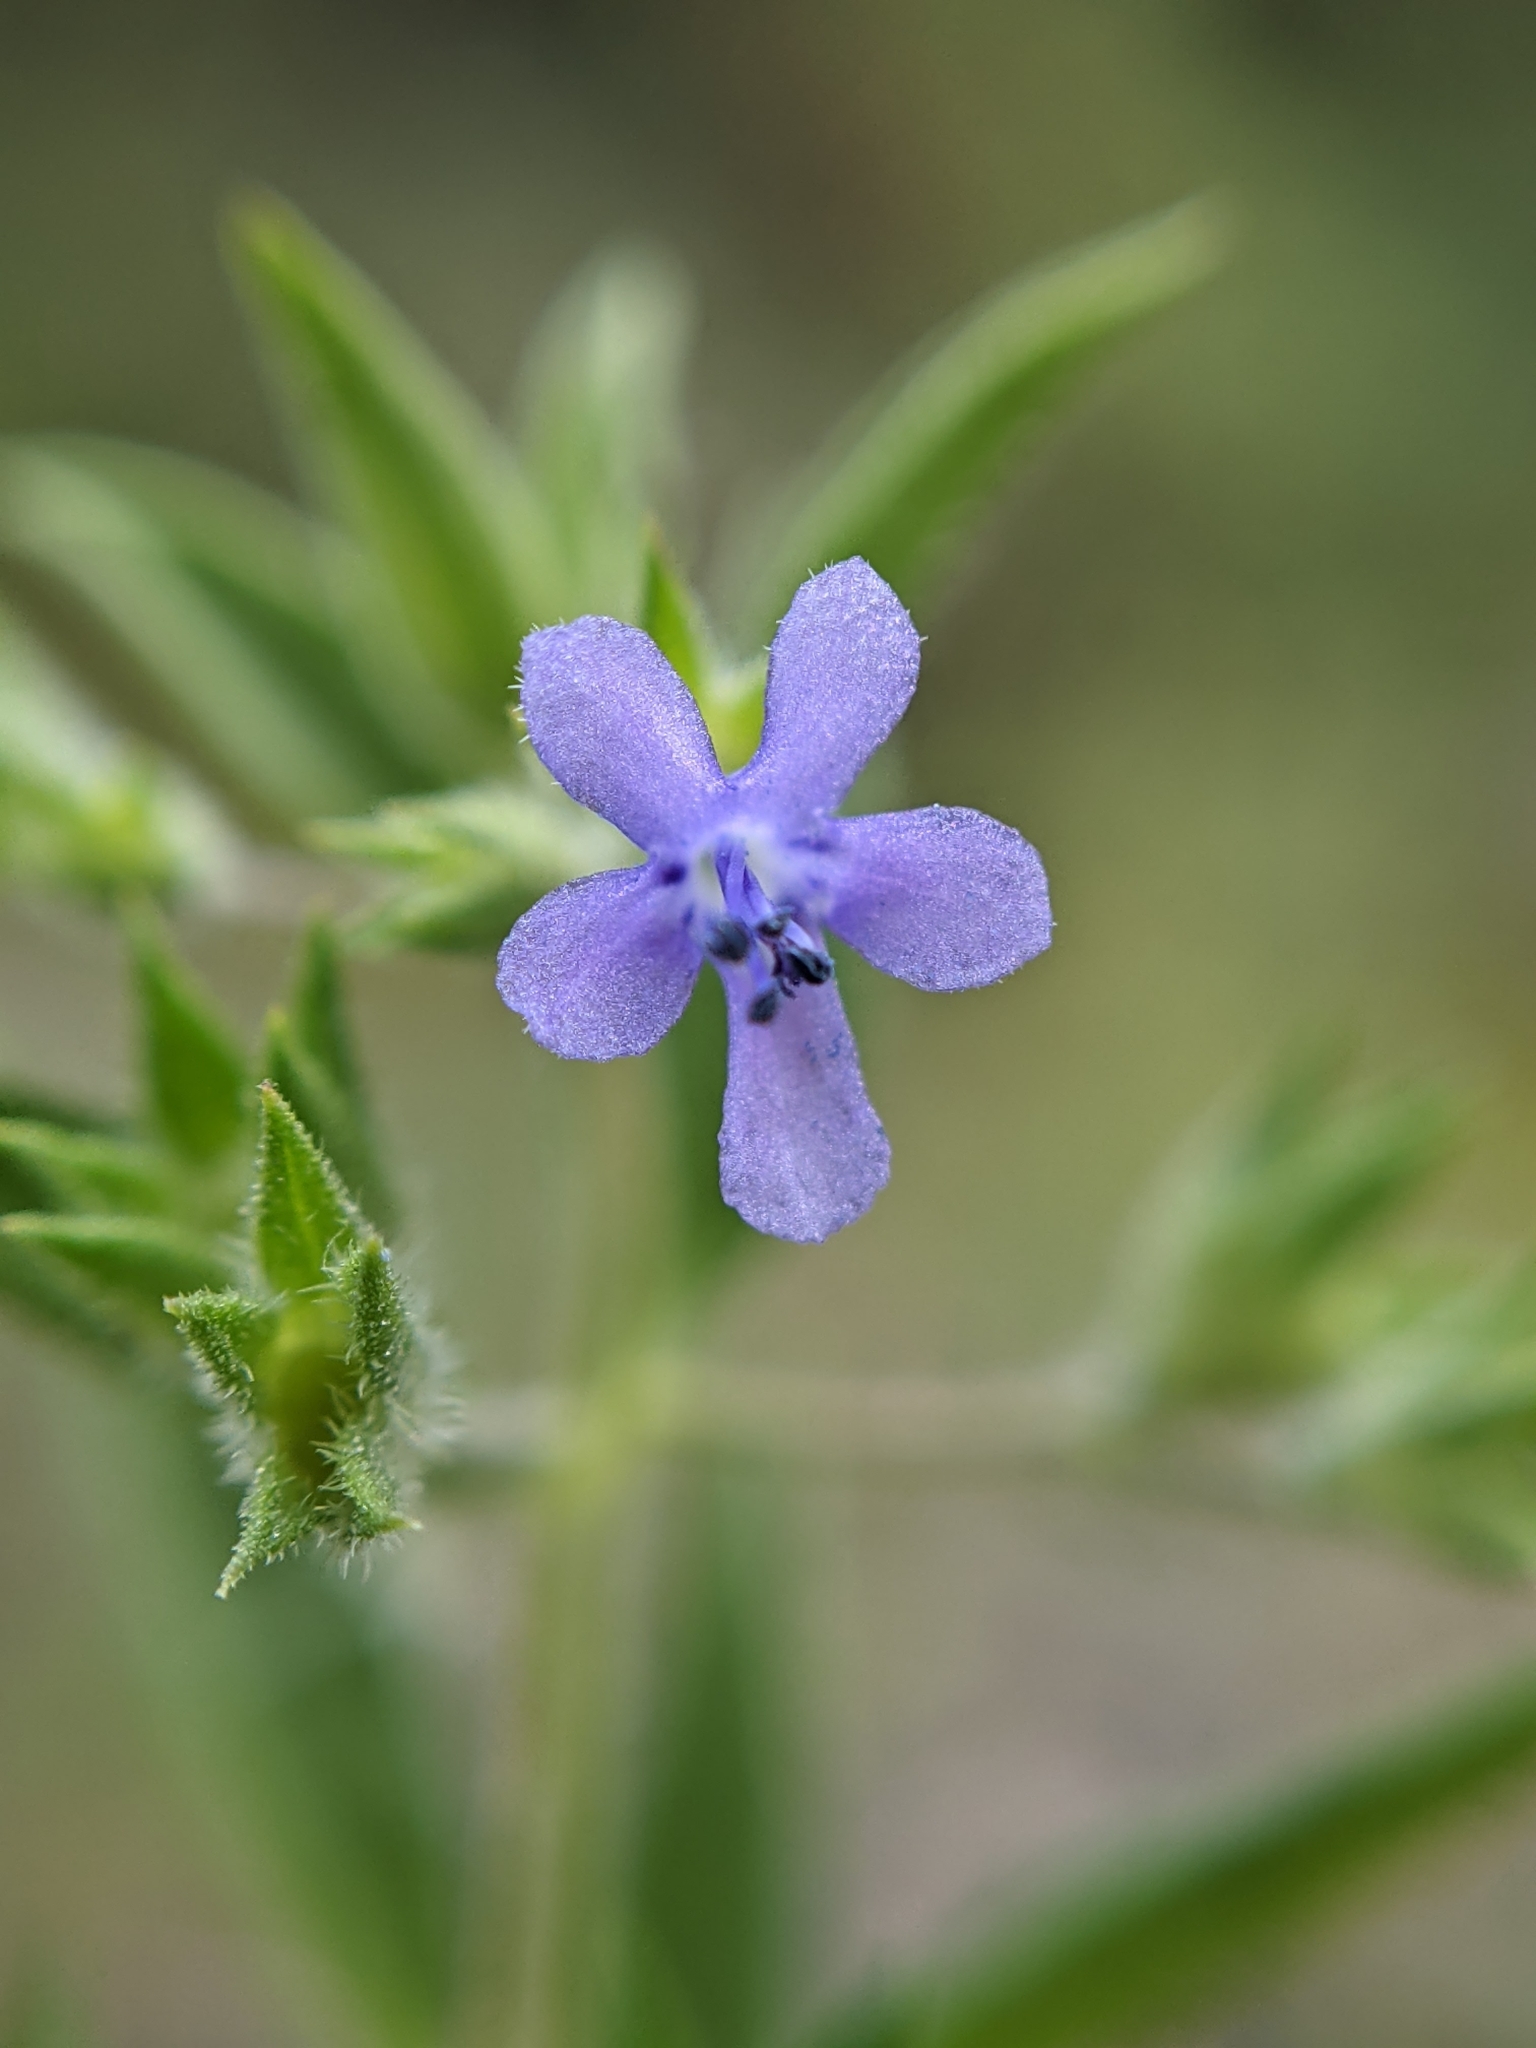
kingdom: Plantae
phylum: Tracheophyta
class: Magnoliopsida
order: Lamiales
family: Lamiaceae
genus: Trichostema
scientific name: Trichostema brachiatum
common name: False pennyroyal
